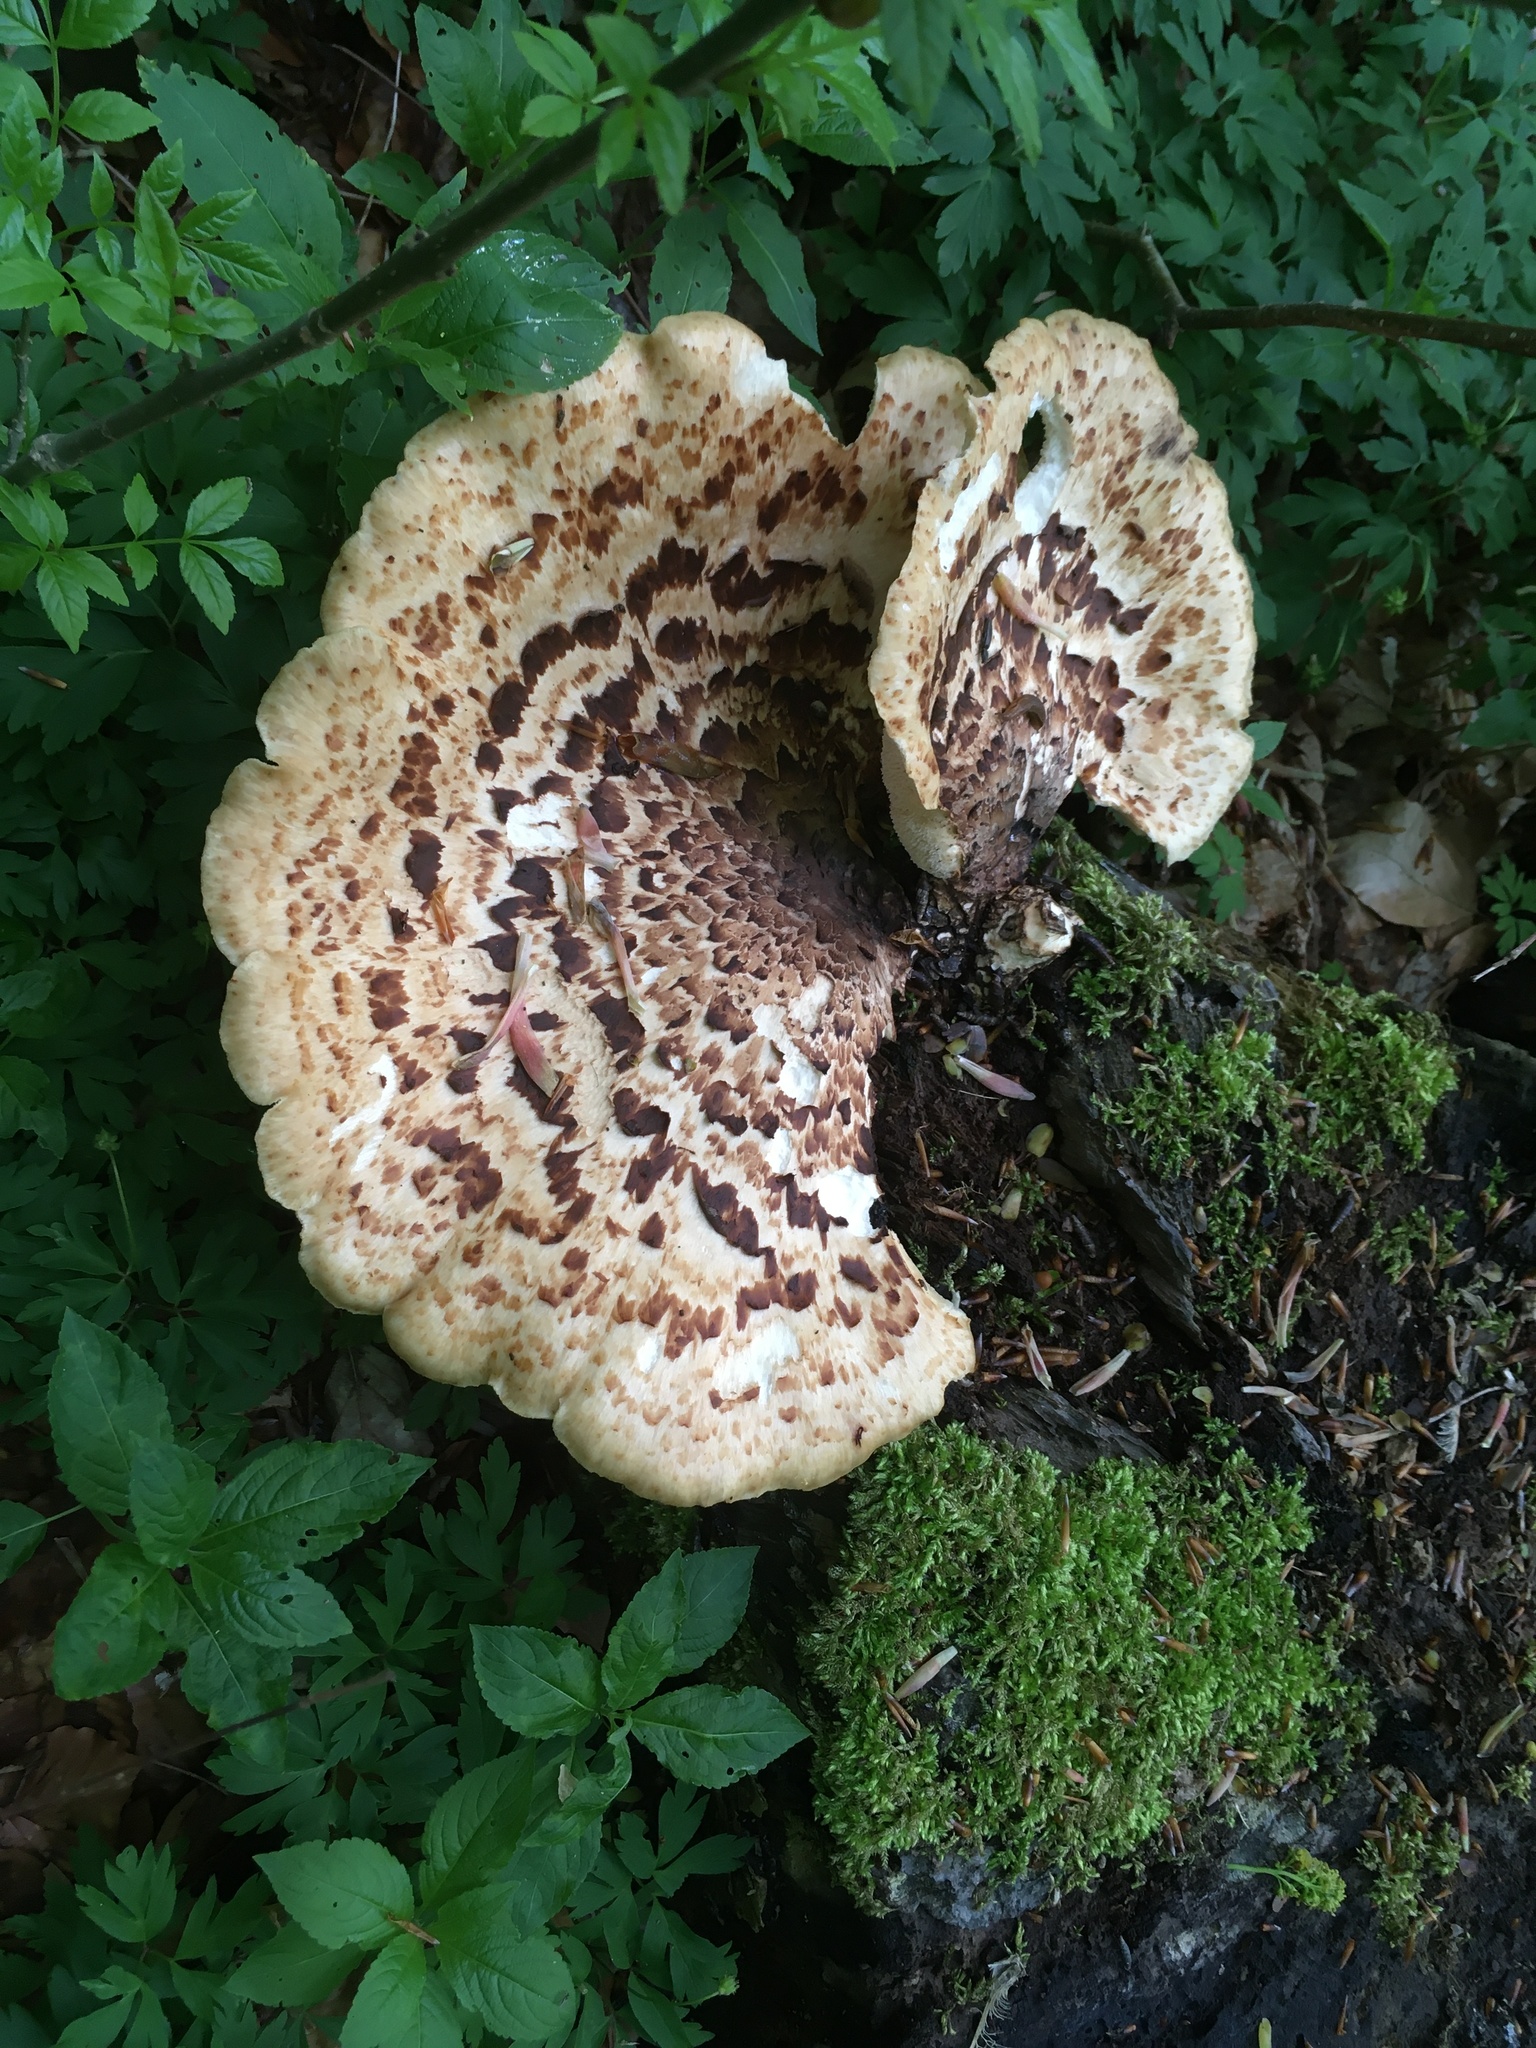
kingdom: Fungi
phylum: Basidiomycota
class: Agaricomycetes
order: Polyporales
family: Polyporaceae
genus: Cerioporus
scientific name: Cerioporus squamosus
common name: Dryad's saddle
